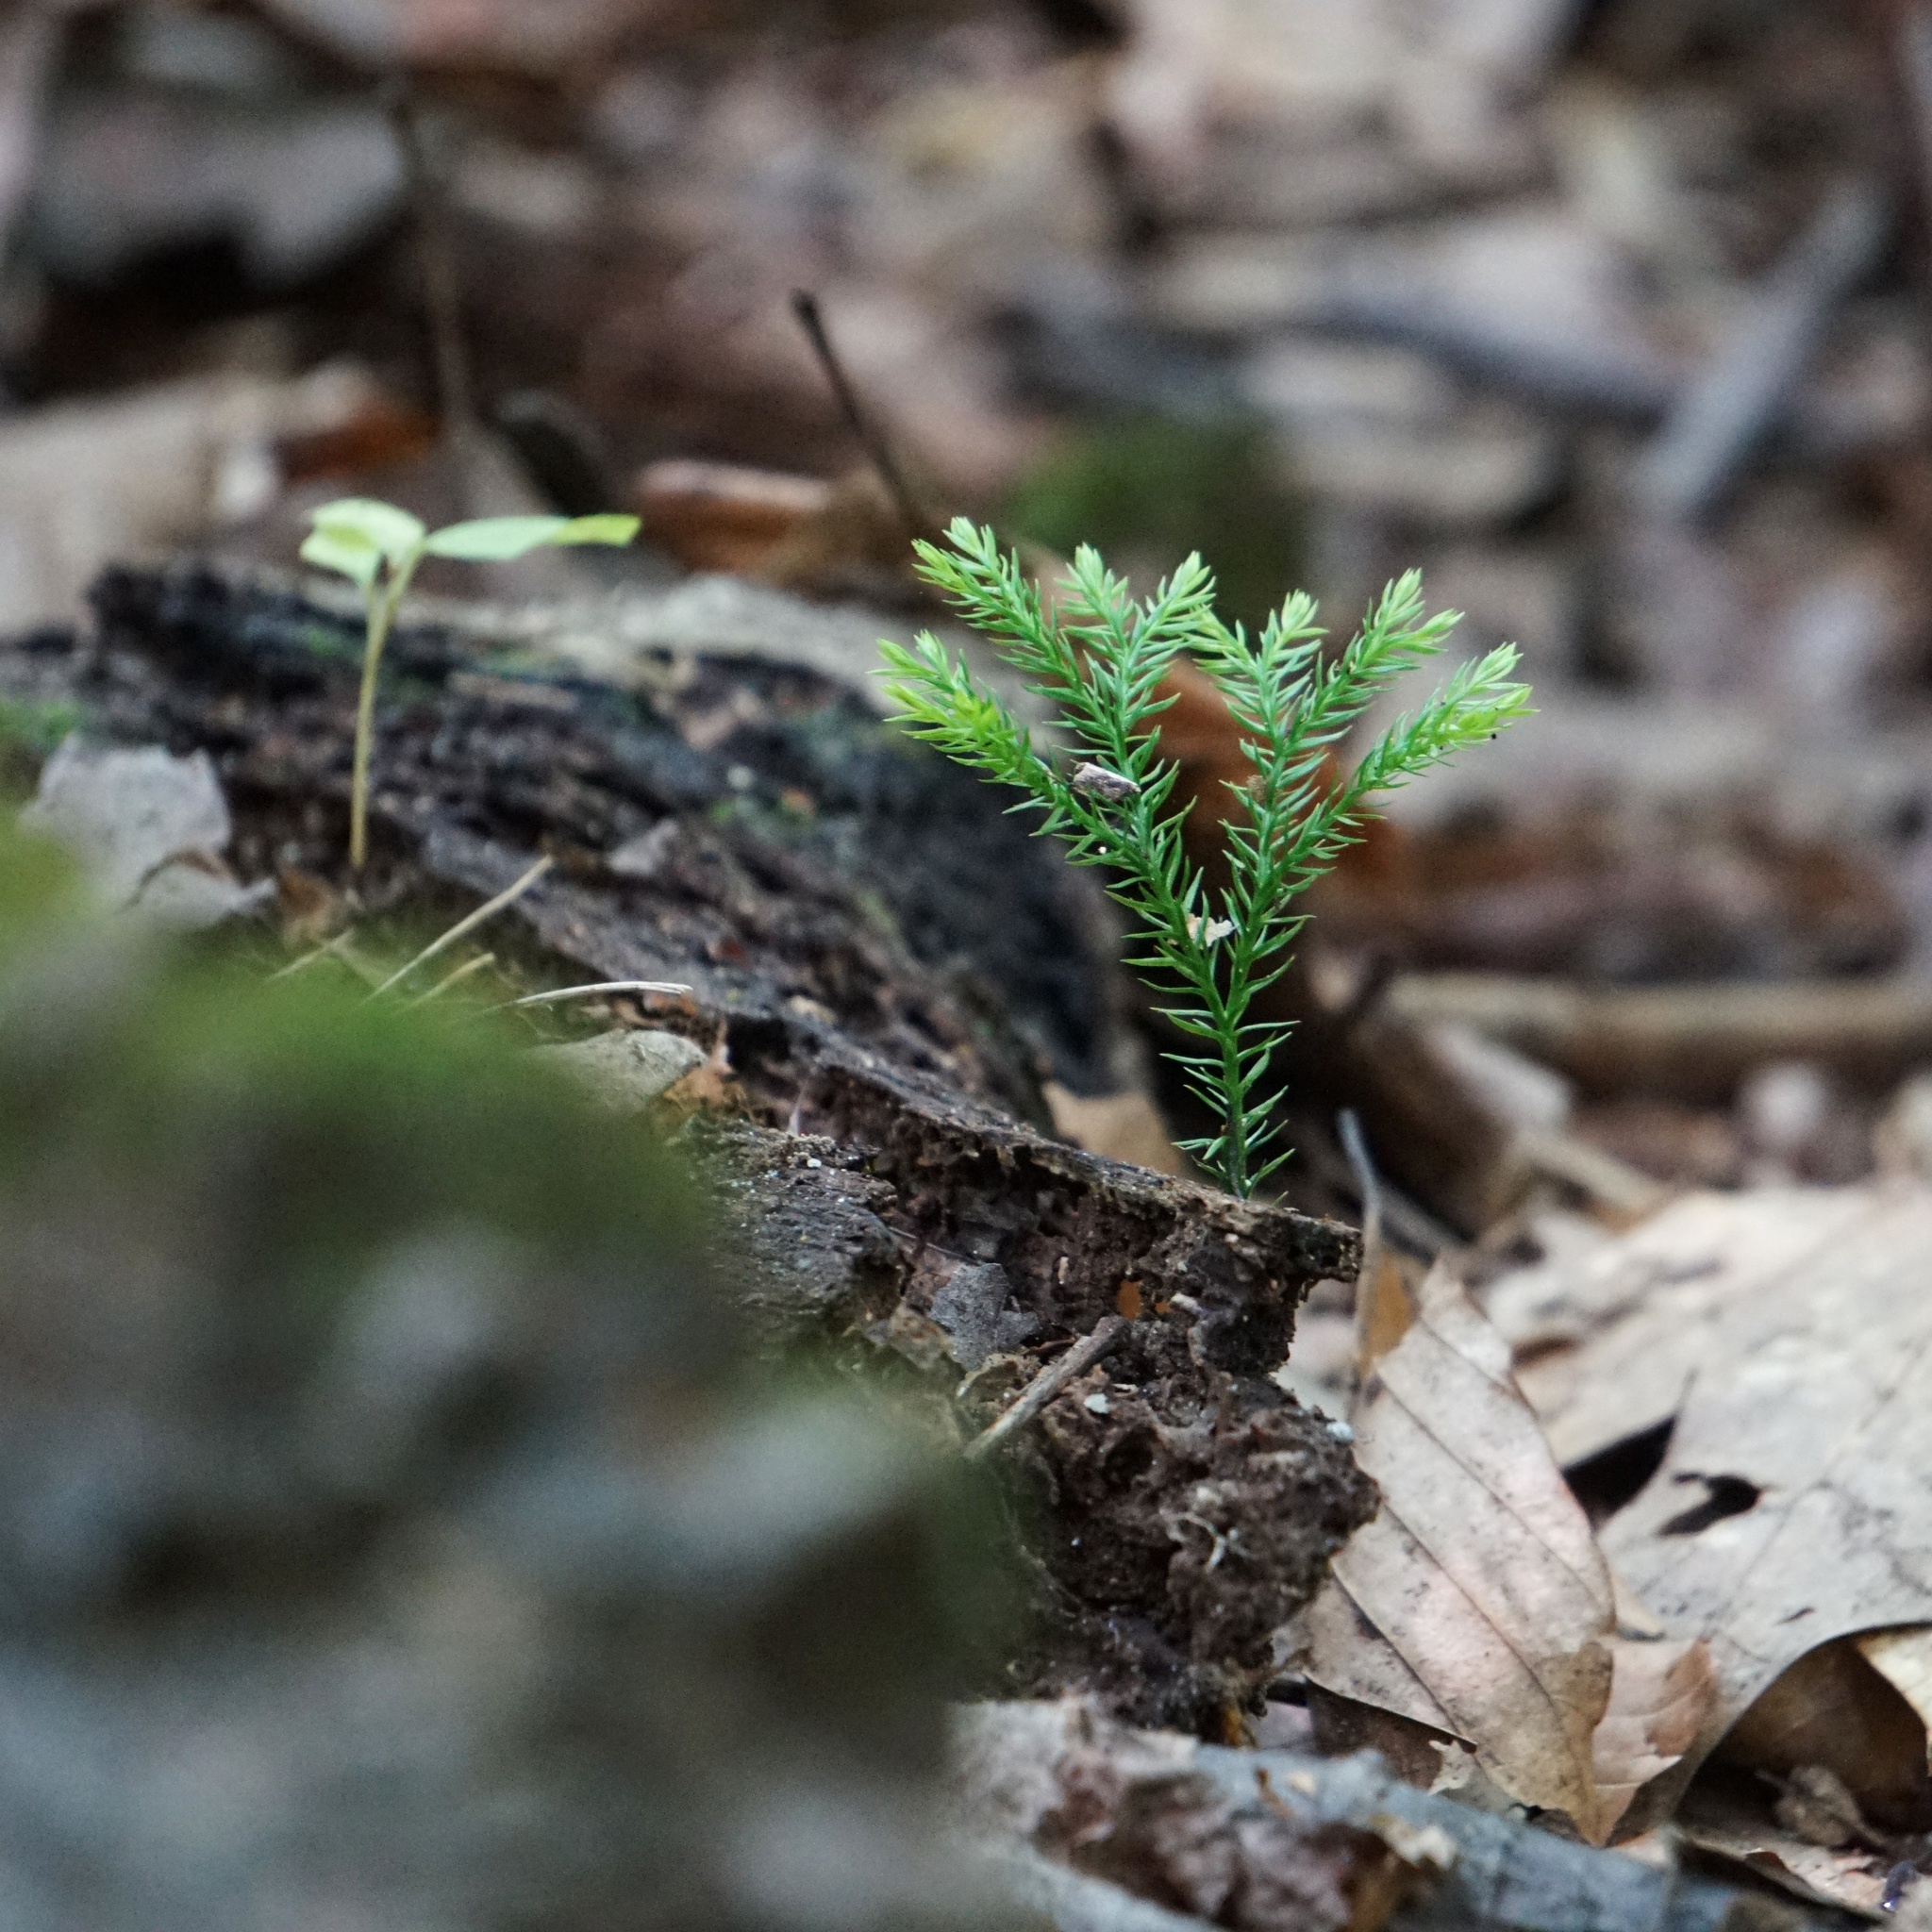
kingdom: Plantae
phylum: Tracheophyta
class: Lycopodiopsida
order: Lycopodiales
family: Lycopodiaceae
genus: Dendrolycopodium
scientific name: Dendrolycopodium dendroideum
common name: Northern tree-clubmoss
